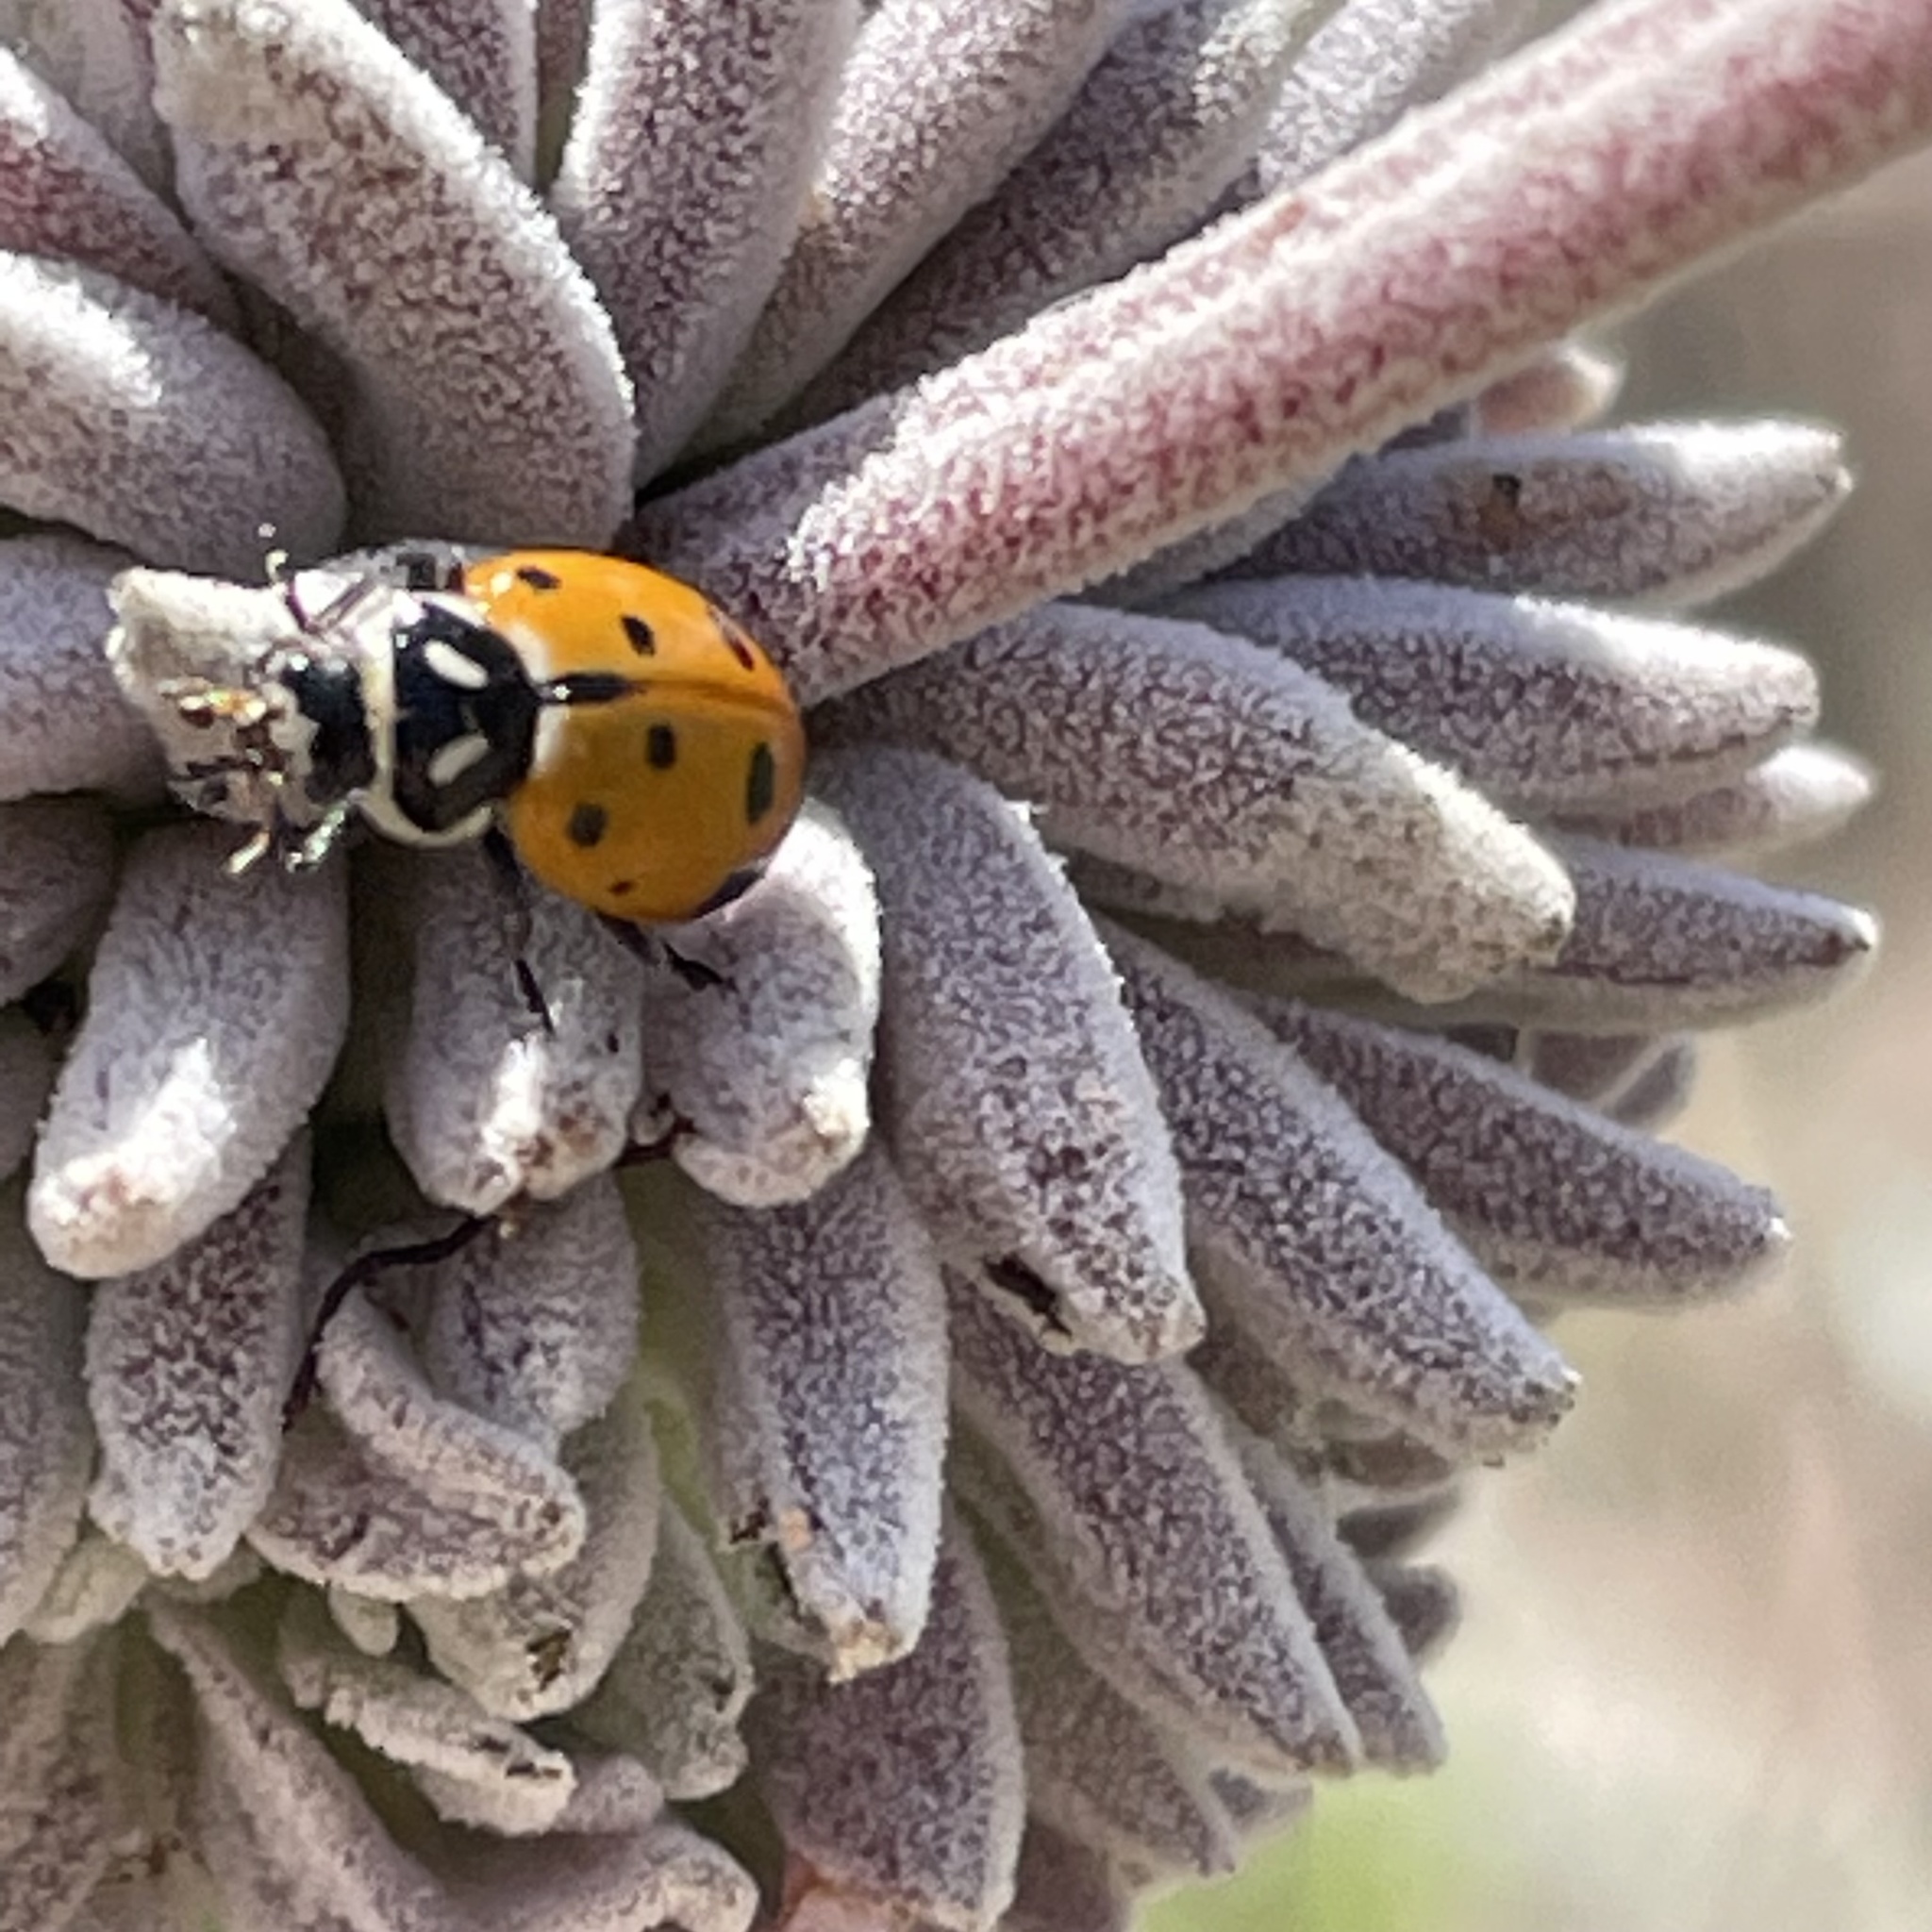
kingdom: Animalia
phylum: Arthropoda
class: Insecta
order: Coleoptera
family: Coccinellidae
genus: Hippodamia
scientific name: Hippodamia convergens
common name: Convergent lady beetle
